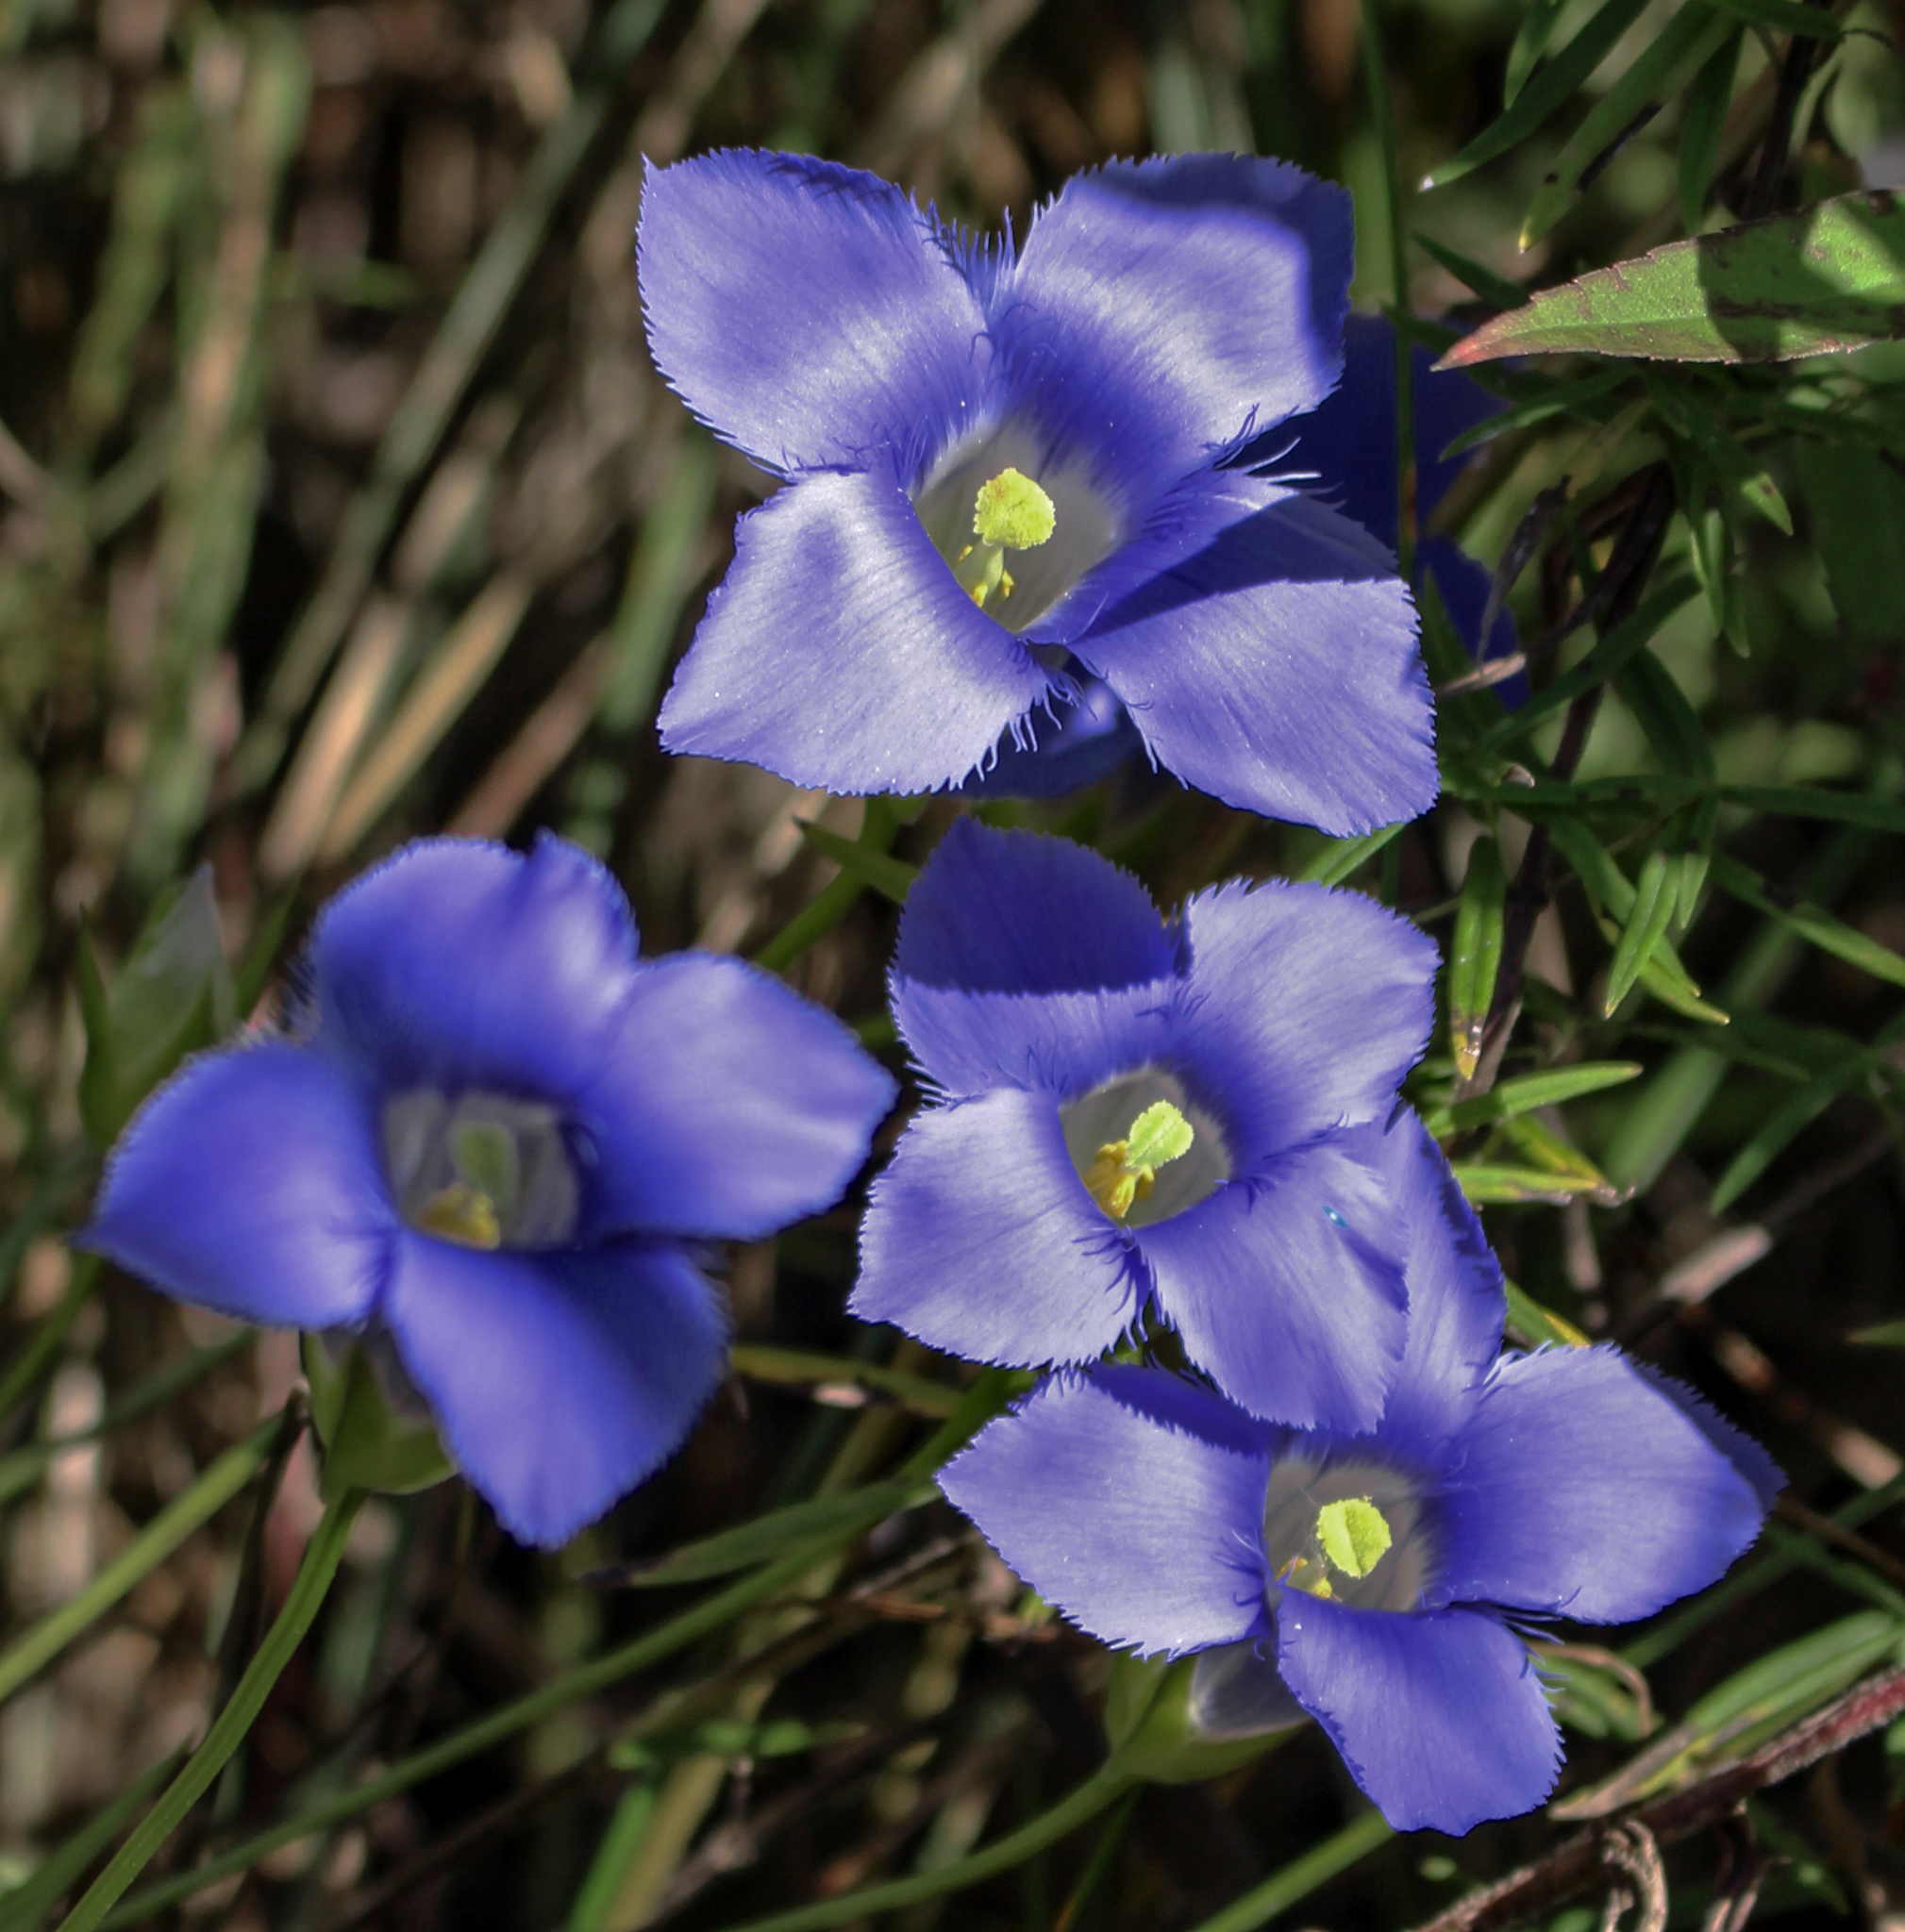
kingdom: Plantae
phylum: Tracheophyta
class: Magnoliopsida
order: Gentianales
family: Gentianaceae
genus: Gentianopsis
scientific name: Gentianopsis virgata
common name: Lesser fringed-gentian
